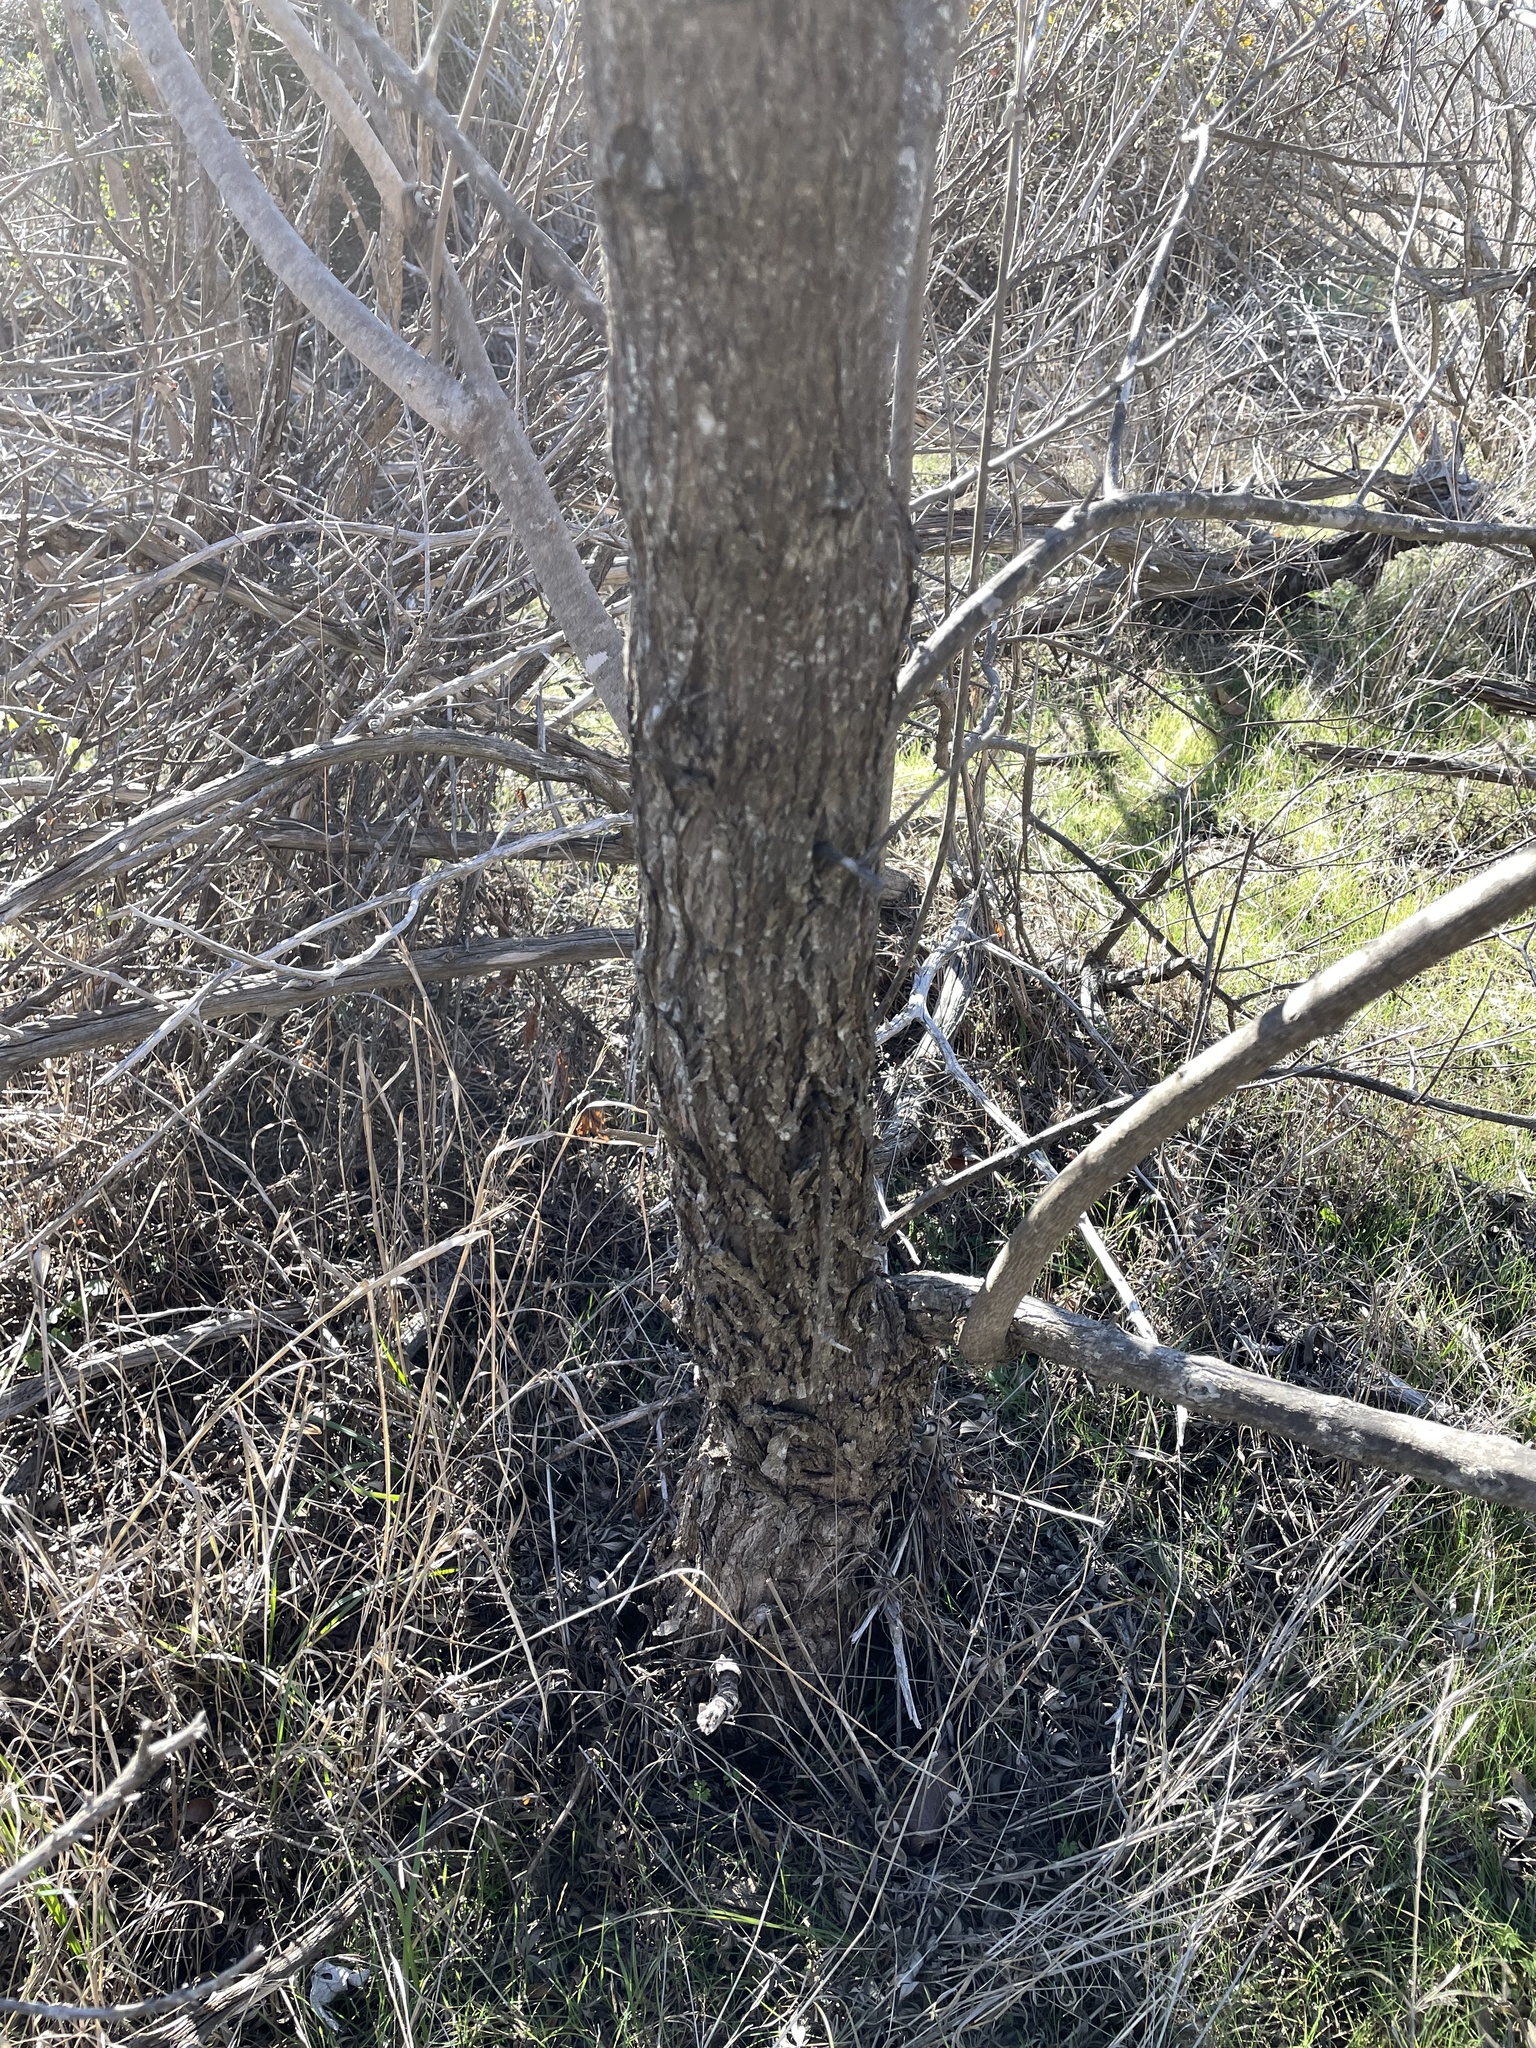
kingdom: Plantae
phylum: Tracheophyta
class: Magnoliopsida
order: Lamiales
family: Lamiaceae
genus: Vitex
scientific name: Vitex agnus-castus
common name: Chasteberry
